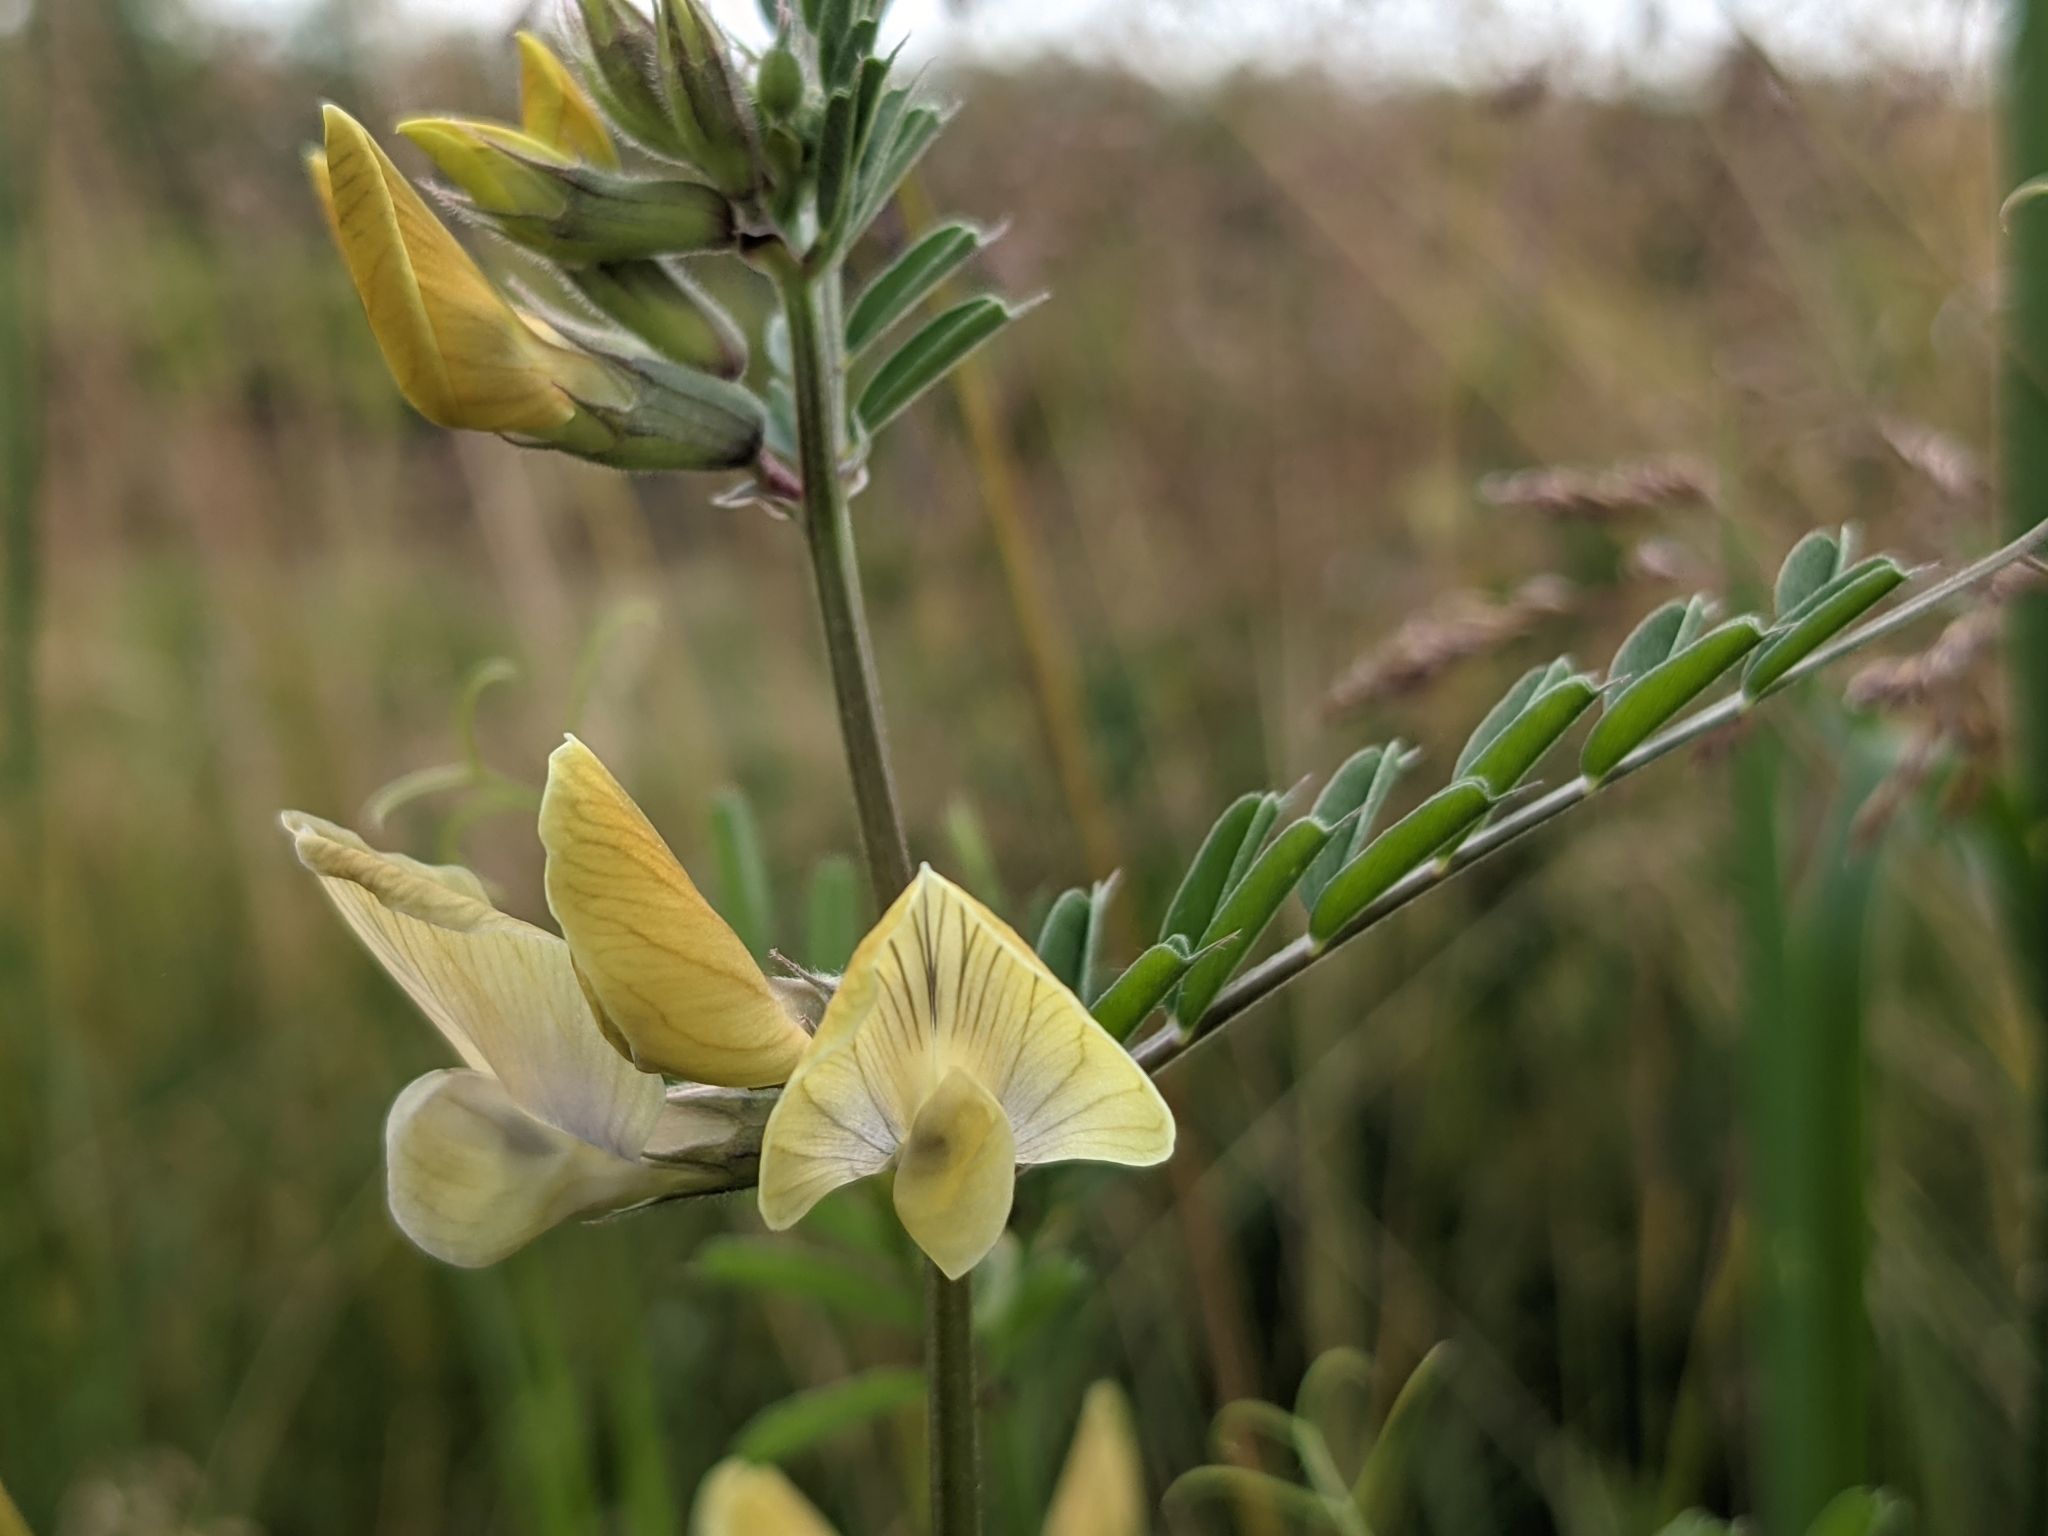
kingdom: Plantae
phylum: Tracheophyta
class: Magnoliopsida
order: Fabales
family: Fabaceae
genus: Vicia
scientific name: Vicia grandiflora
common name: Large yellow vetch
